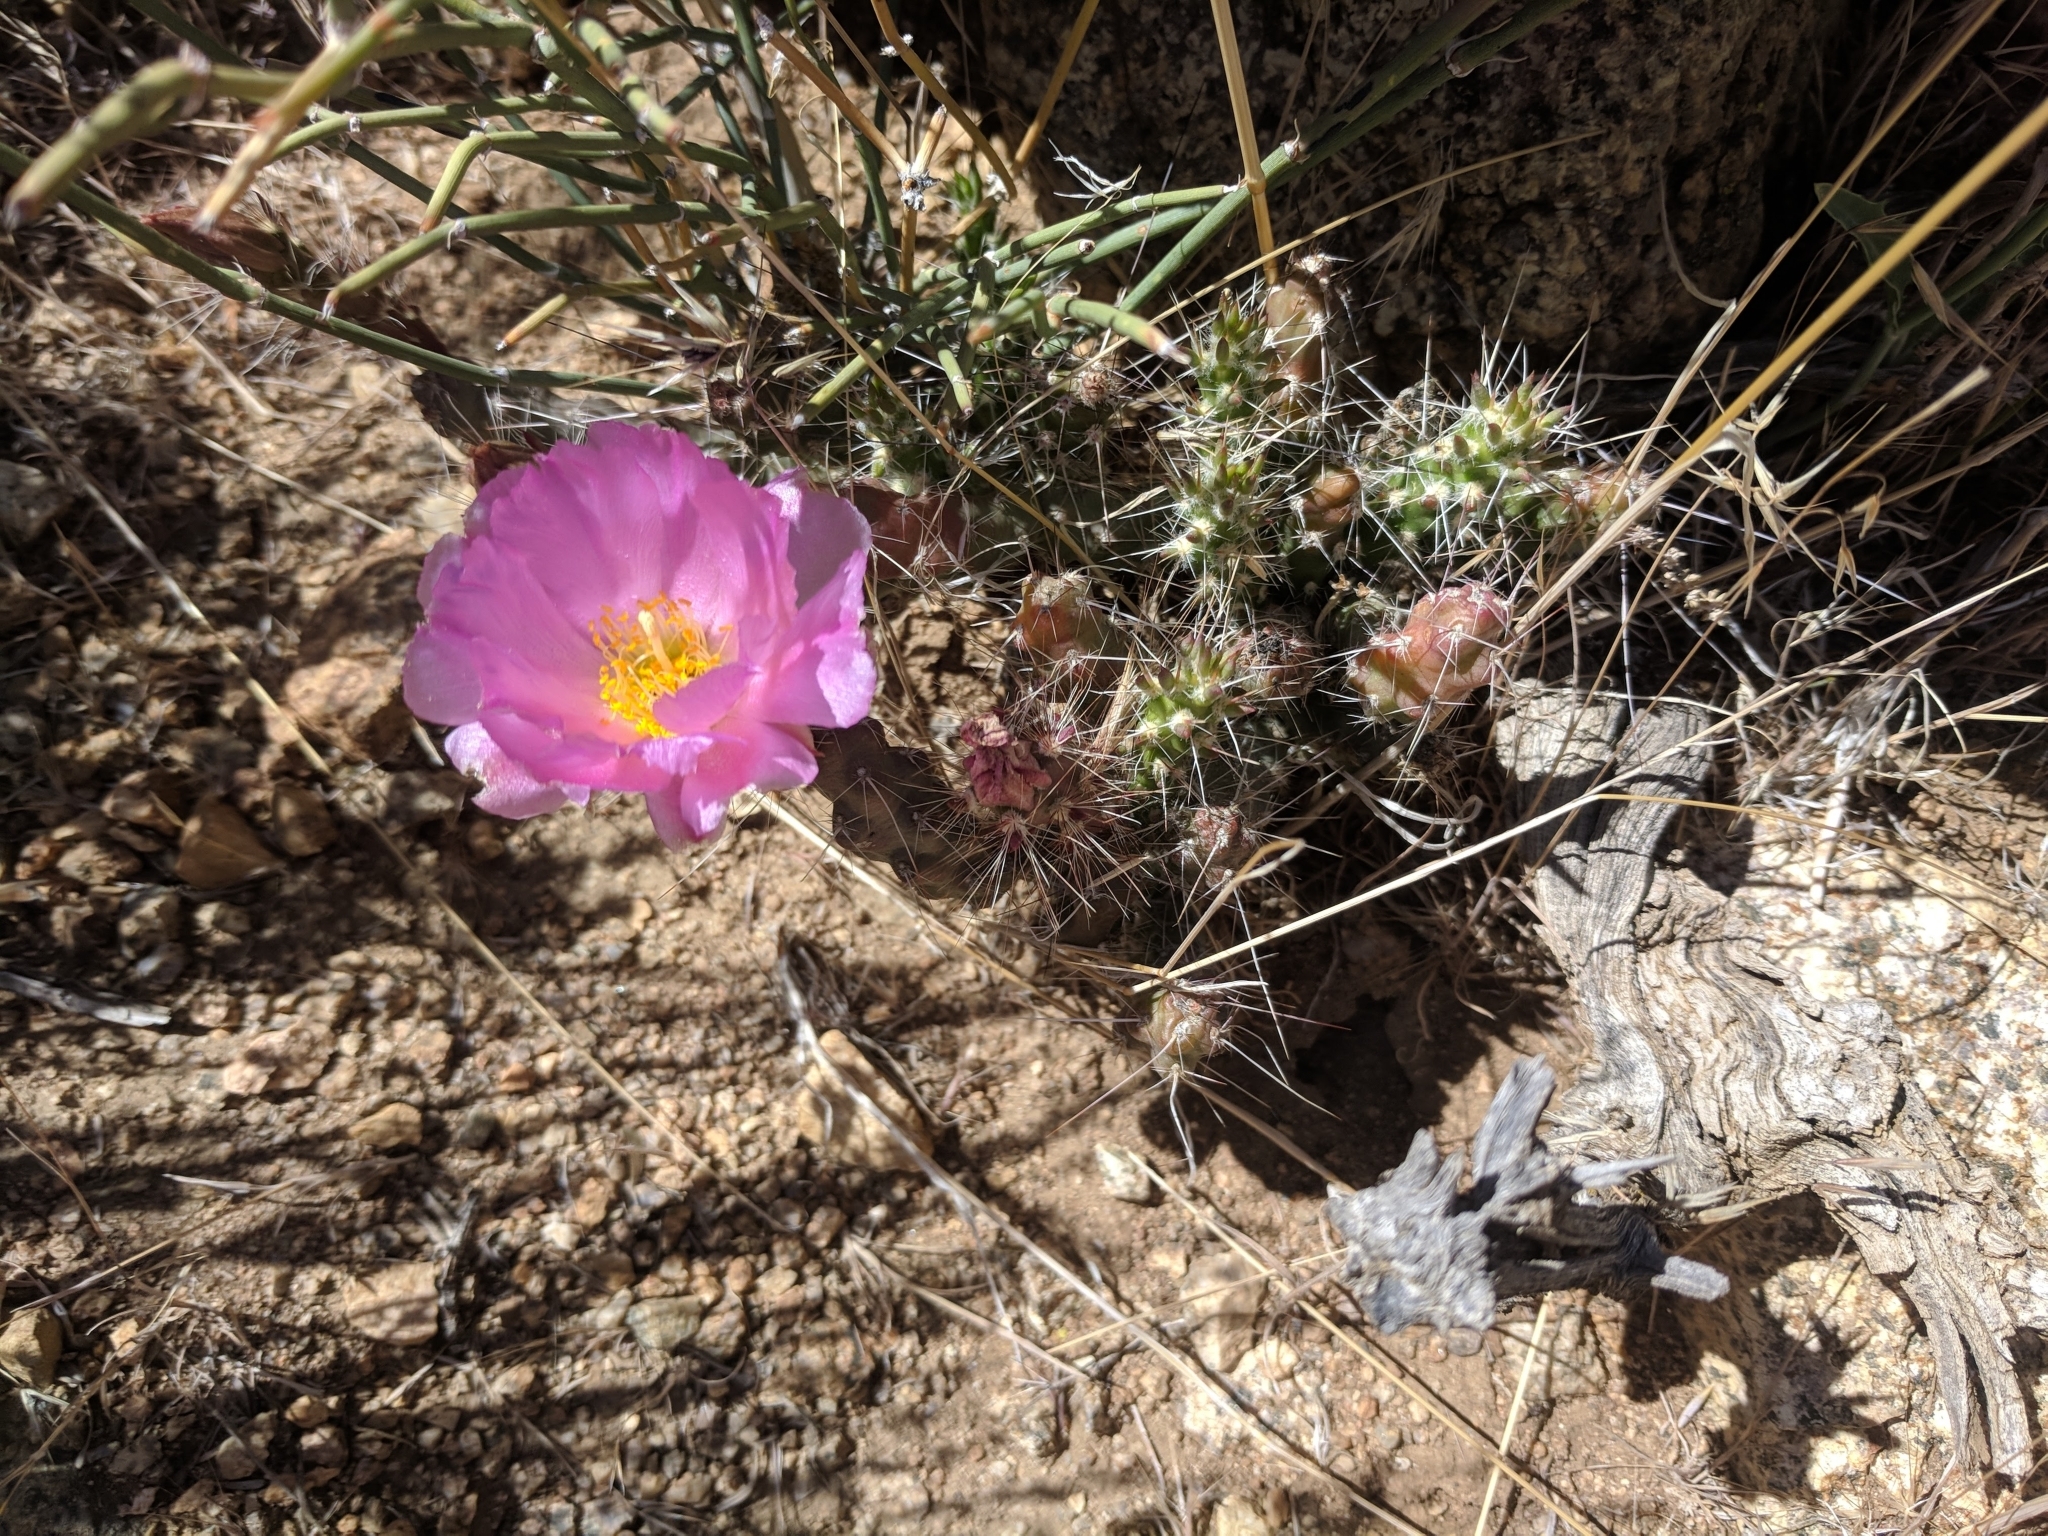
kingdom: Plantae
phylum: Tracheophyta
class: Magnoliopsida
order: Caryophyllales
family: Cactaceae
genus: Micropuntia
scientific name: Micropuntia pulchella
